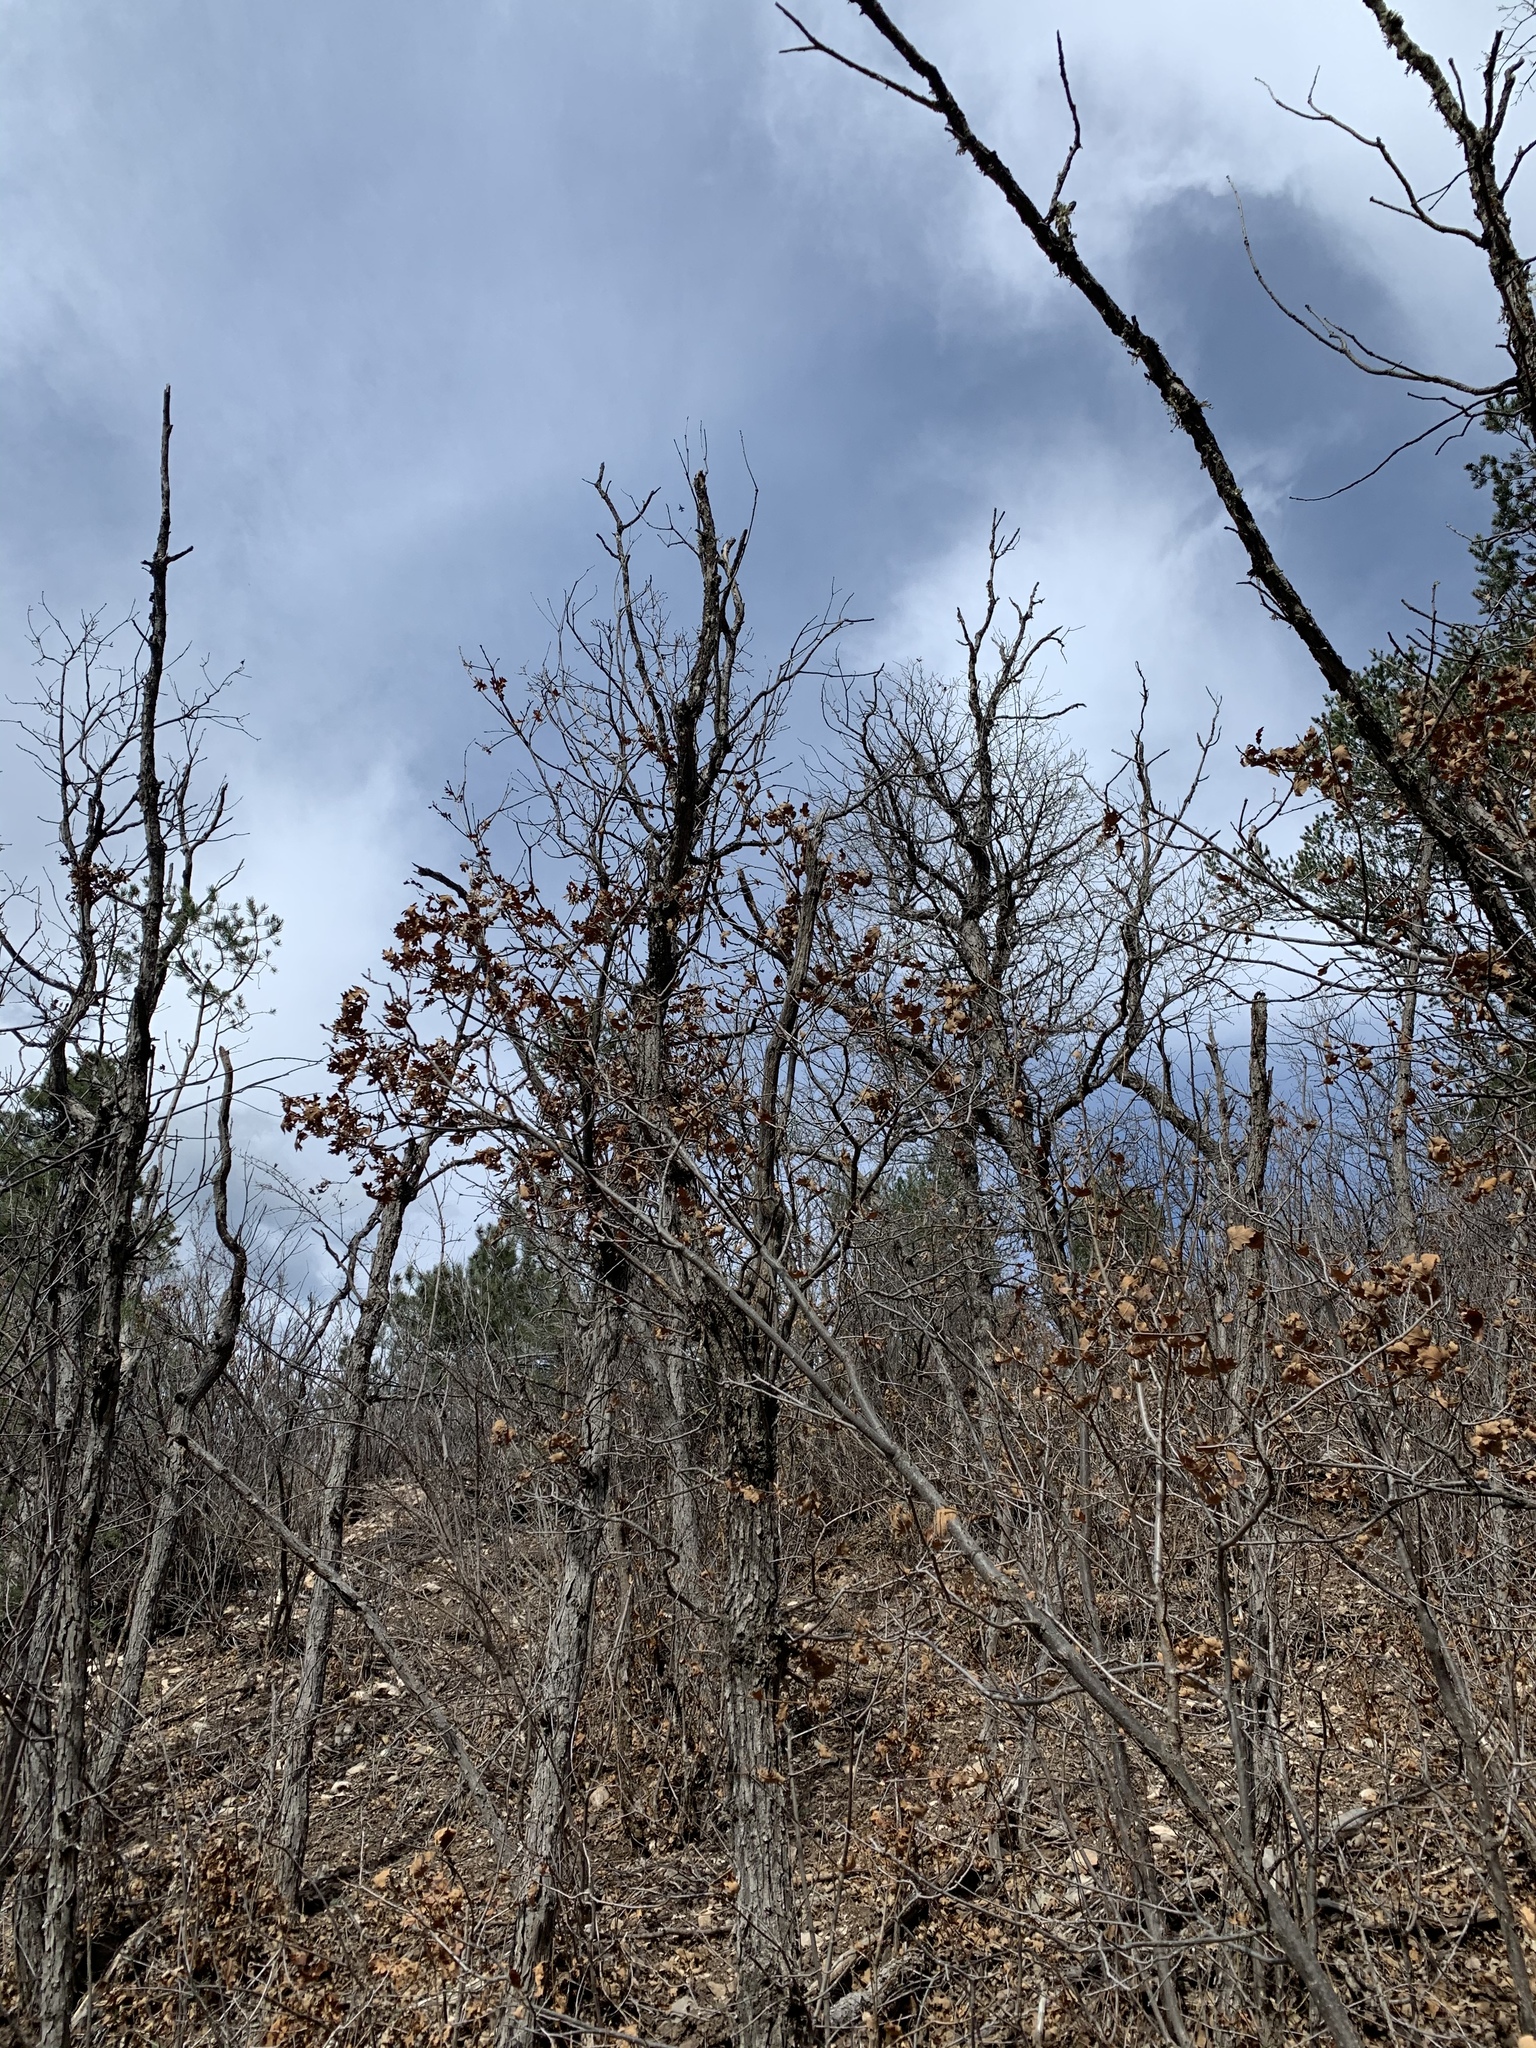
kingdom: Plantae
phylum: Tracheophyta
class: Magnoliopsida
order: Fagales
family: Fagaceae
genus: Quercus
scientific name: Quercus gambelii
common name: Gambel oak
